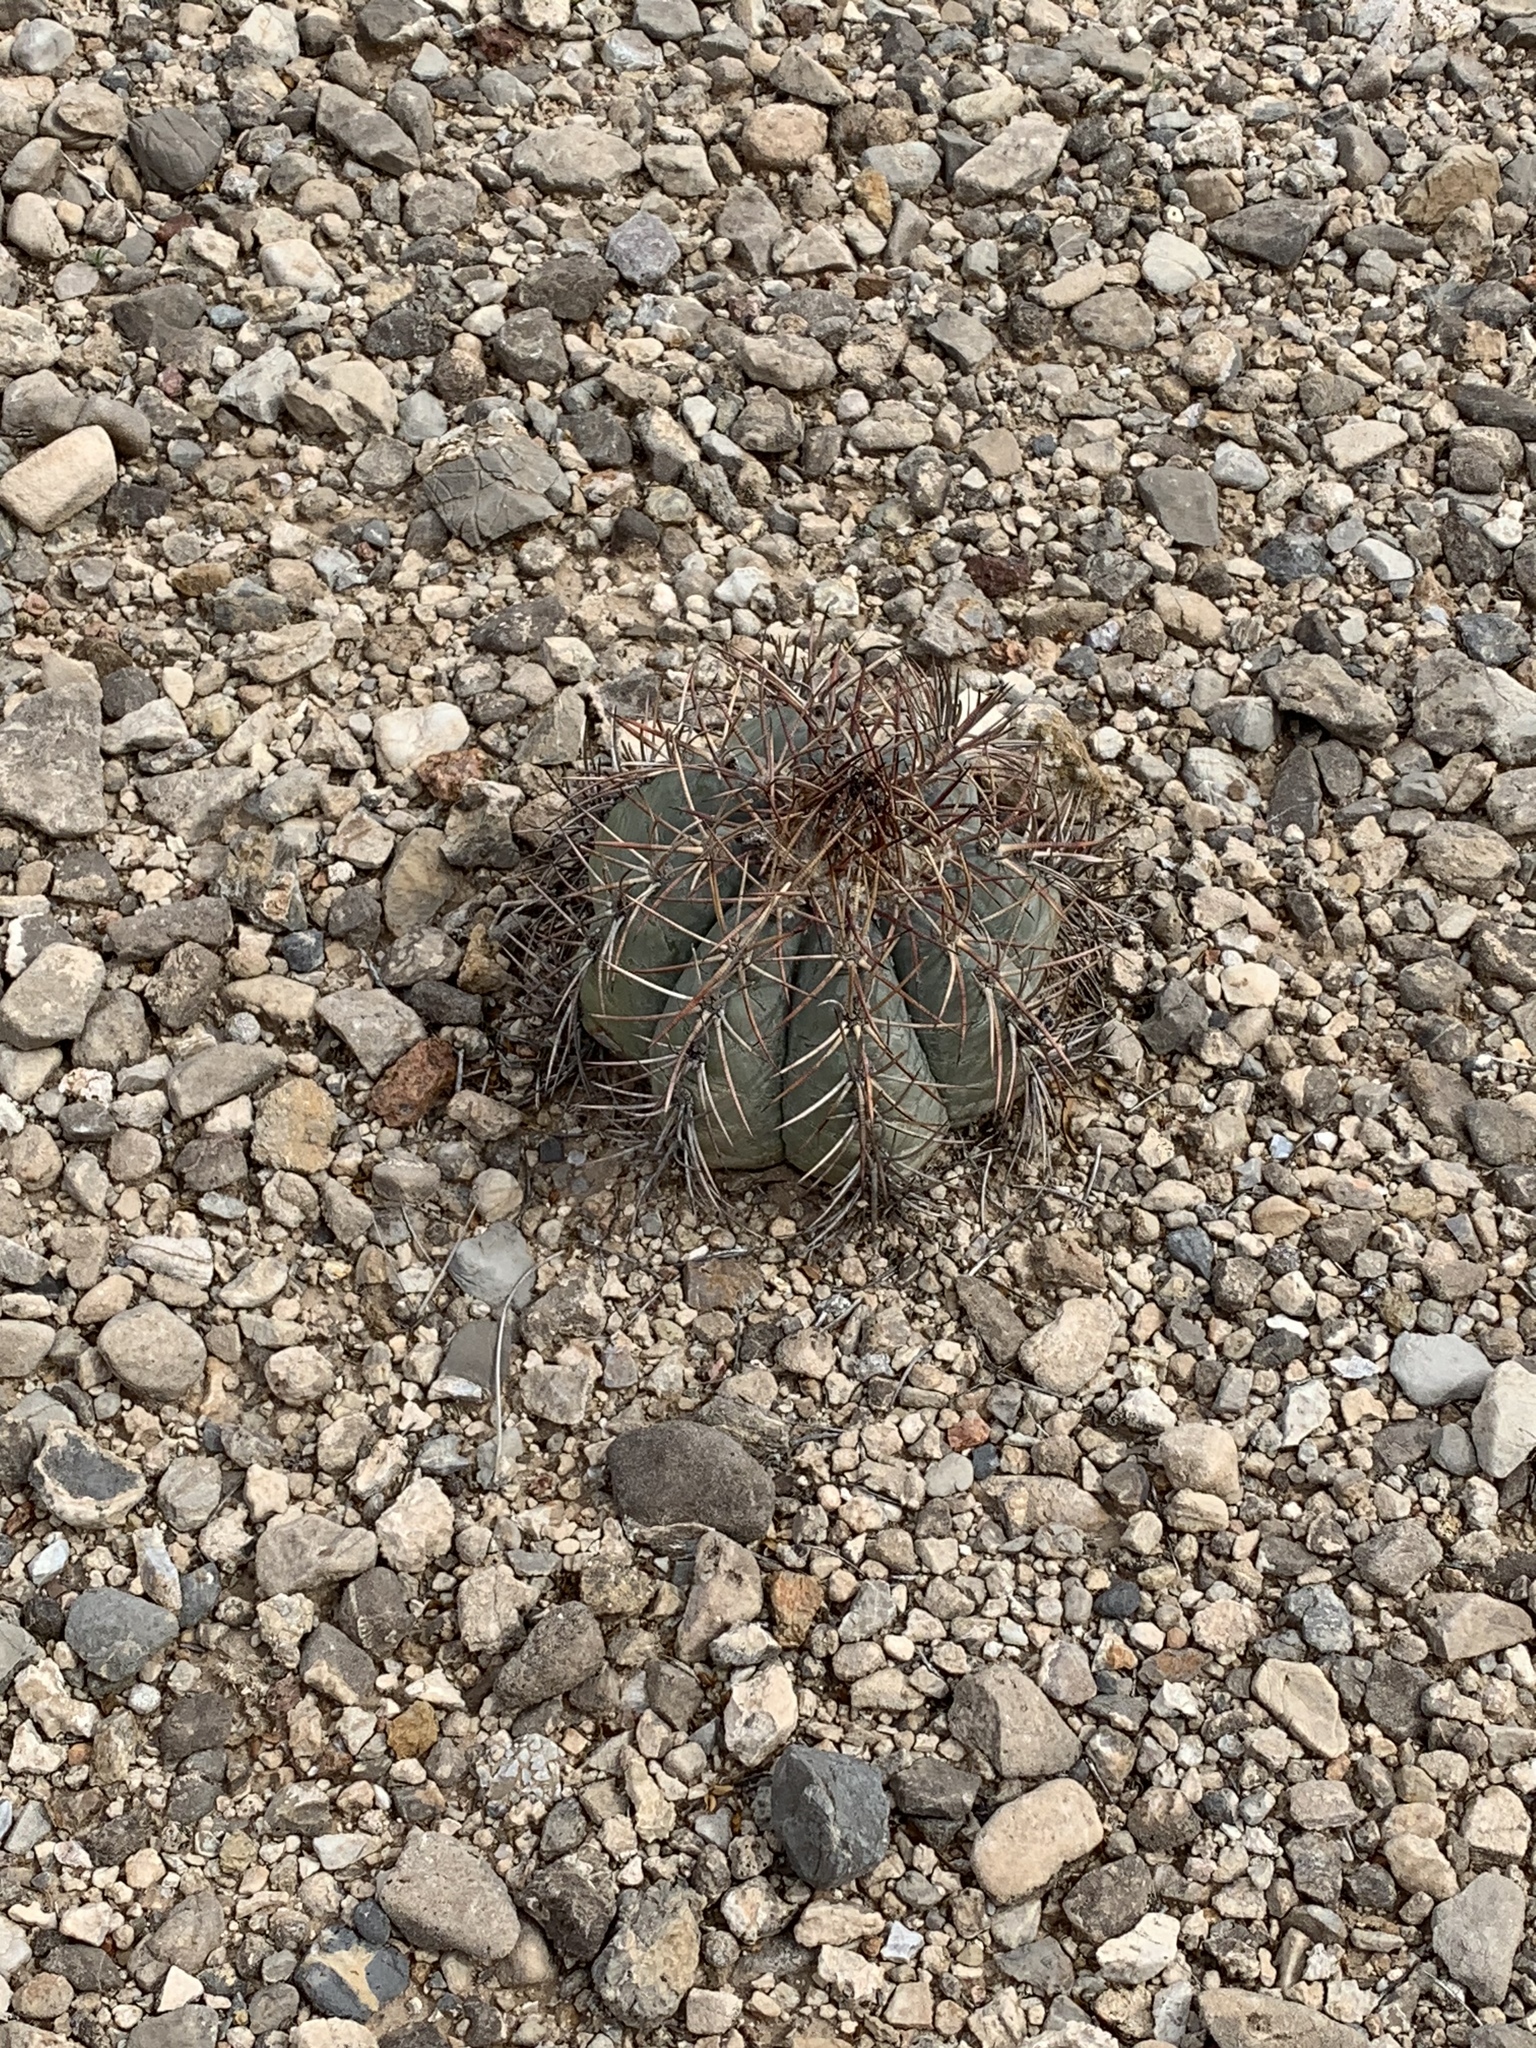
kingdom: Plantae
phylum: Tracheophyta
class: Magnoliopsida
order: Caryophyllales
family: Cactaceae
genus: Echinocactus
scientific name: Echinocactus horizonthalonius
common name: Devilshead
